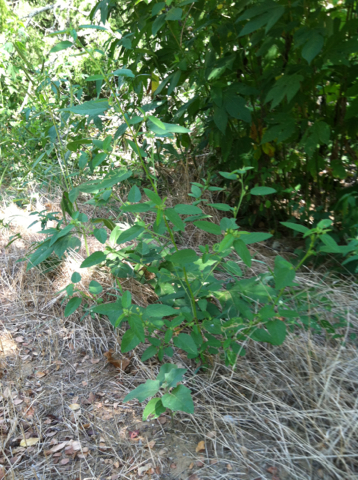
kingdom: Plantae
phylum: Tracheophyta
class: Magnoliopsida
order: Malvales
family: Malvaceae
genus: Sida
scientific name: Sida spinosa
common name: Prickly fanpetals
